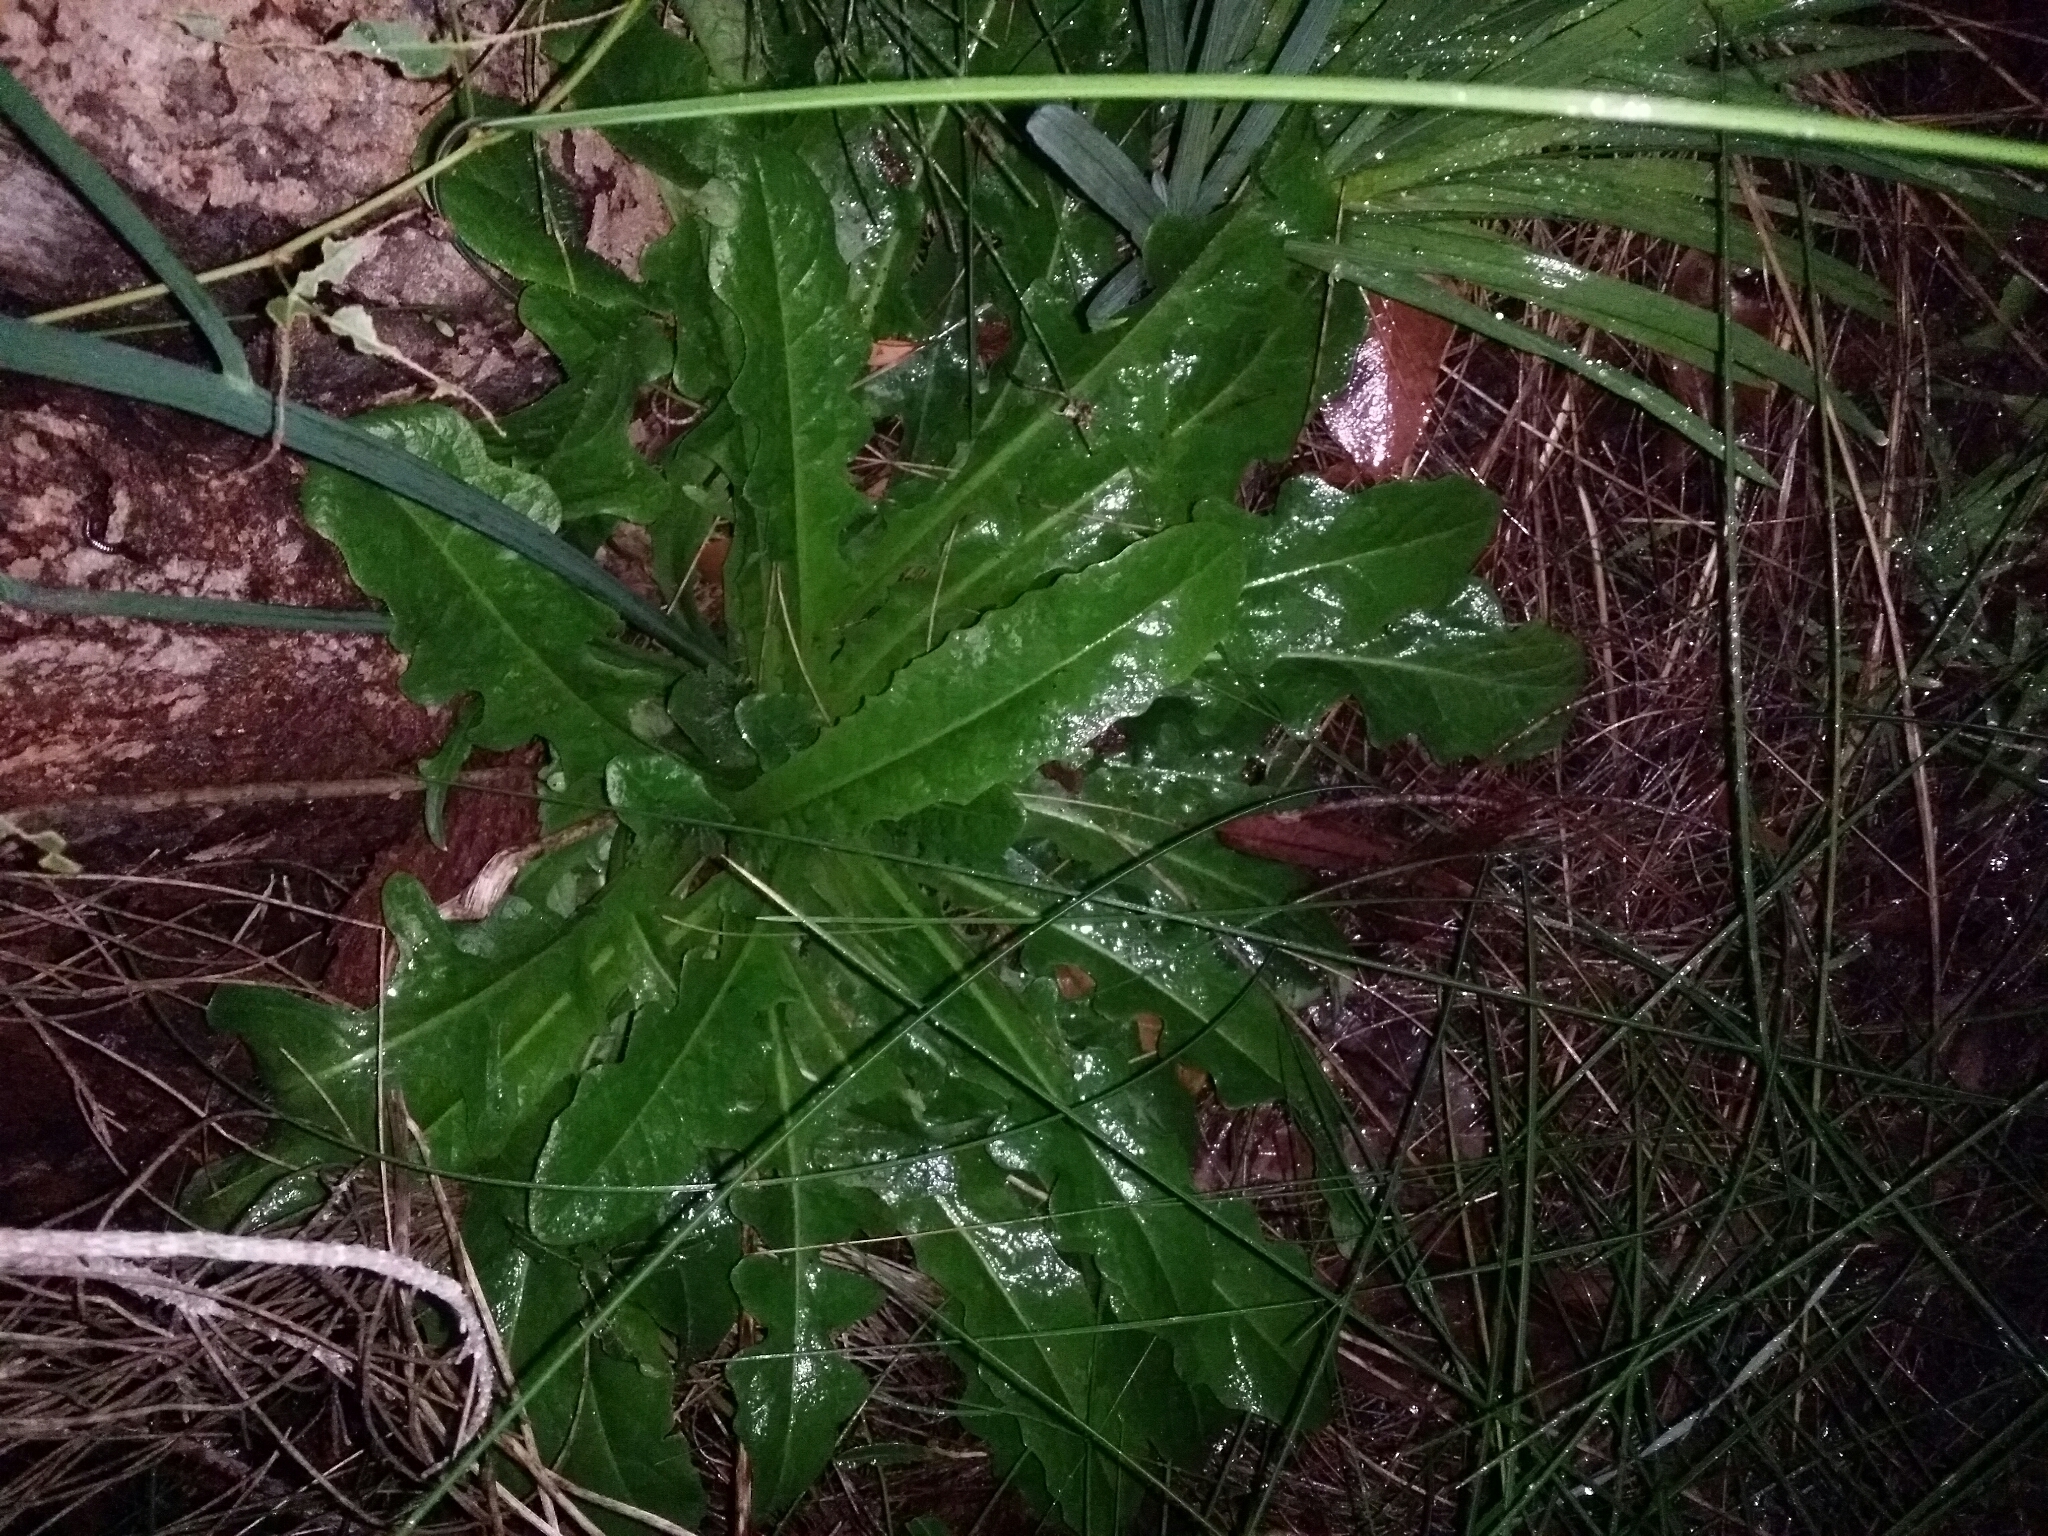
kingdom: Plantae
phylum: Tracheophyta
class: Magnoliopsida
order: Asterales
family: Asteraceae
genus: Hypochaeris
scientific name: Hypochaeris radicata
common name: Flatweed
